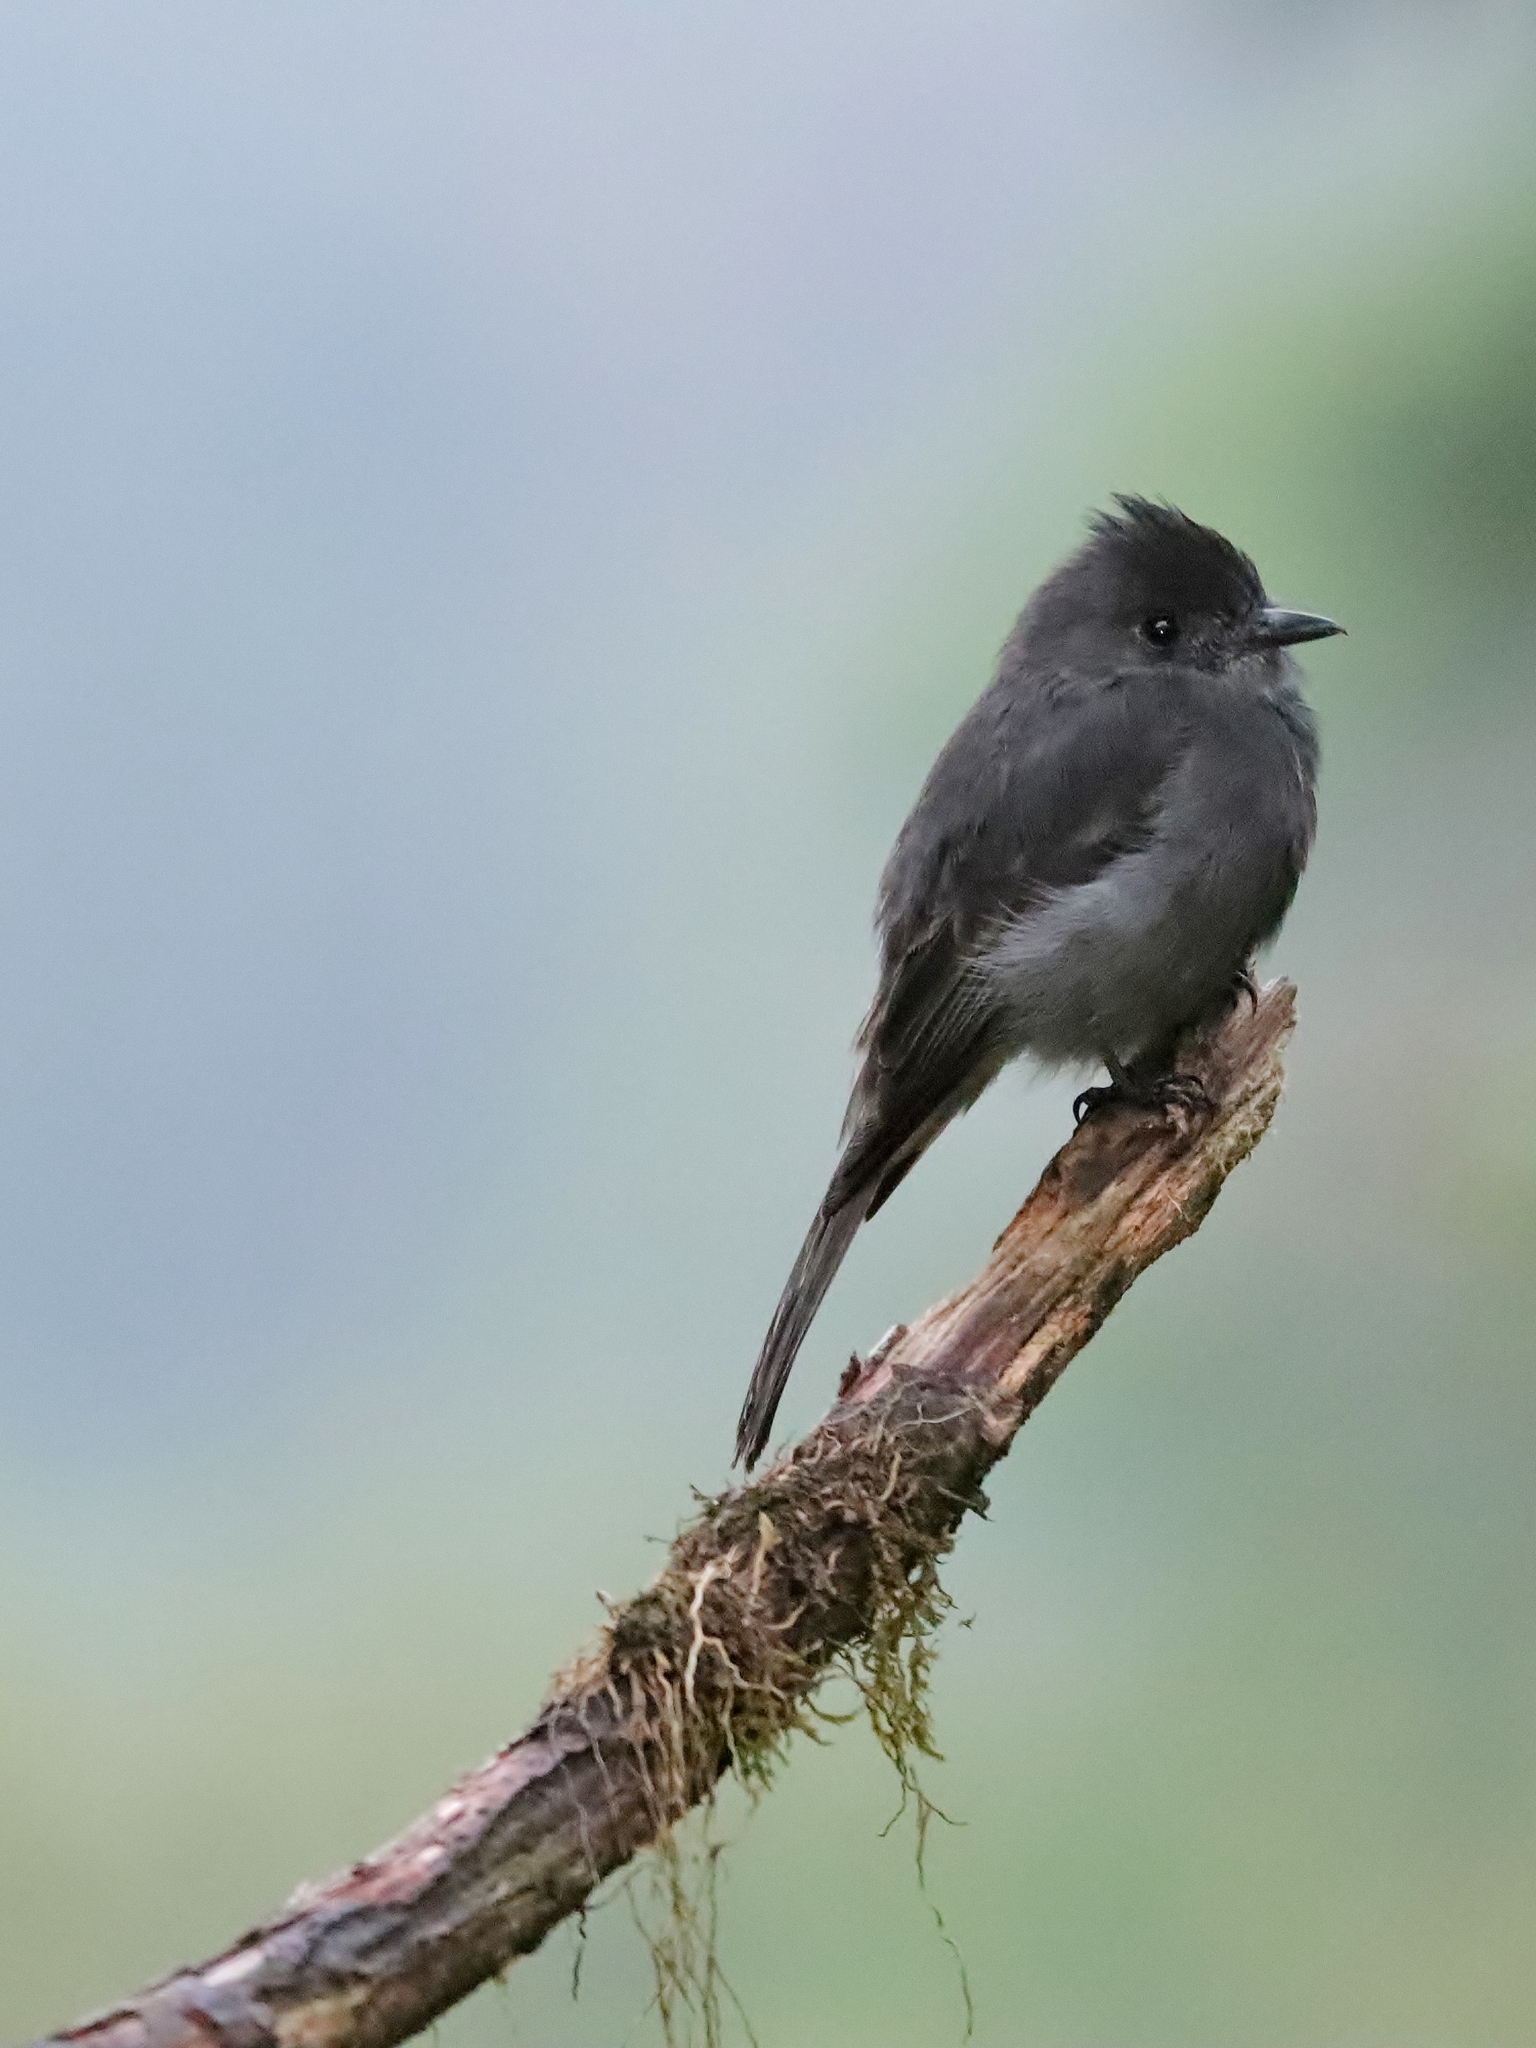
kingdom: Animalia
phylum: Chordata
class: Aves
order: Passeriformes
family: Tyrannidae
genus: Contopus
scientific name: Contopus fumigatus
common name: Smoke-colored pewee
